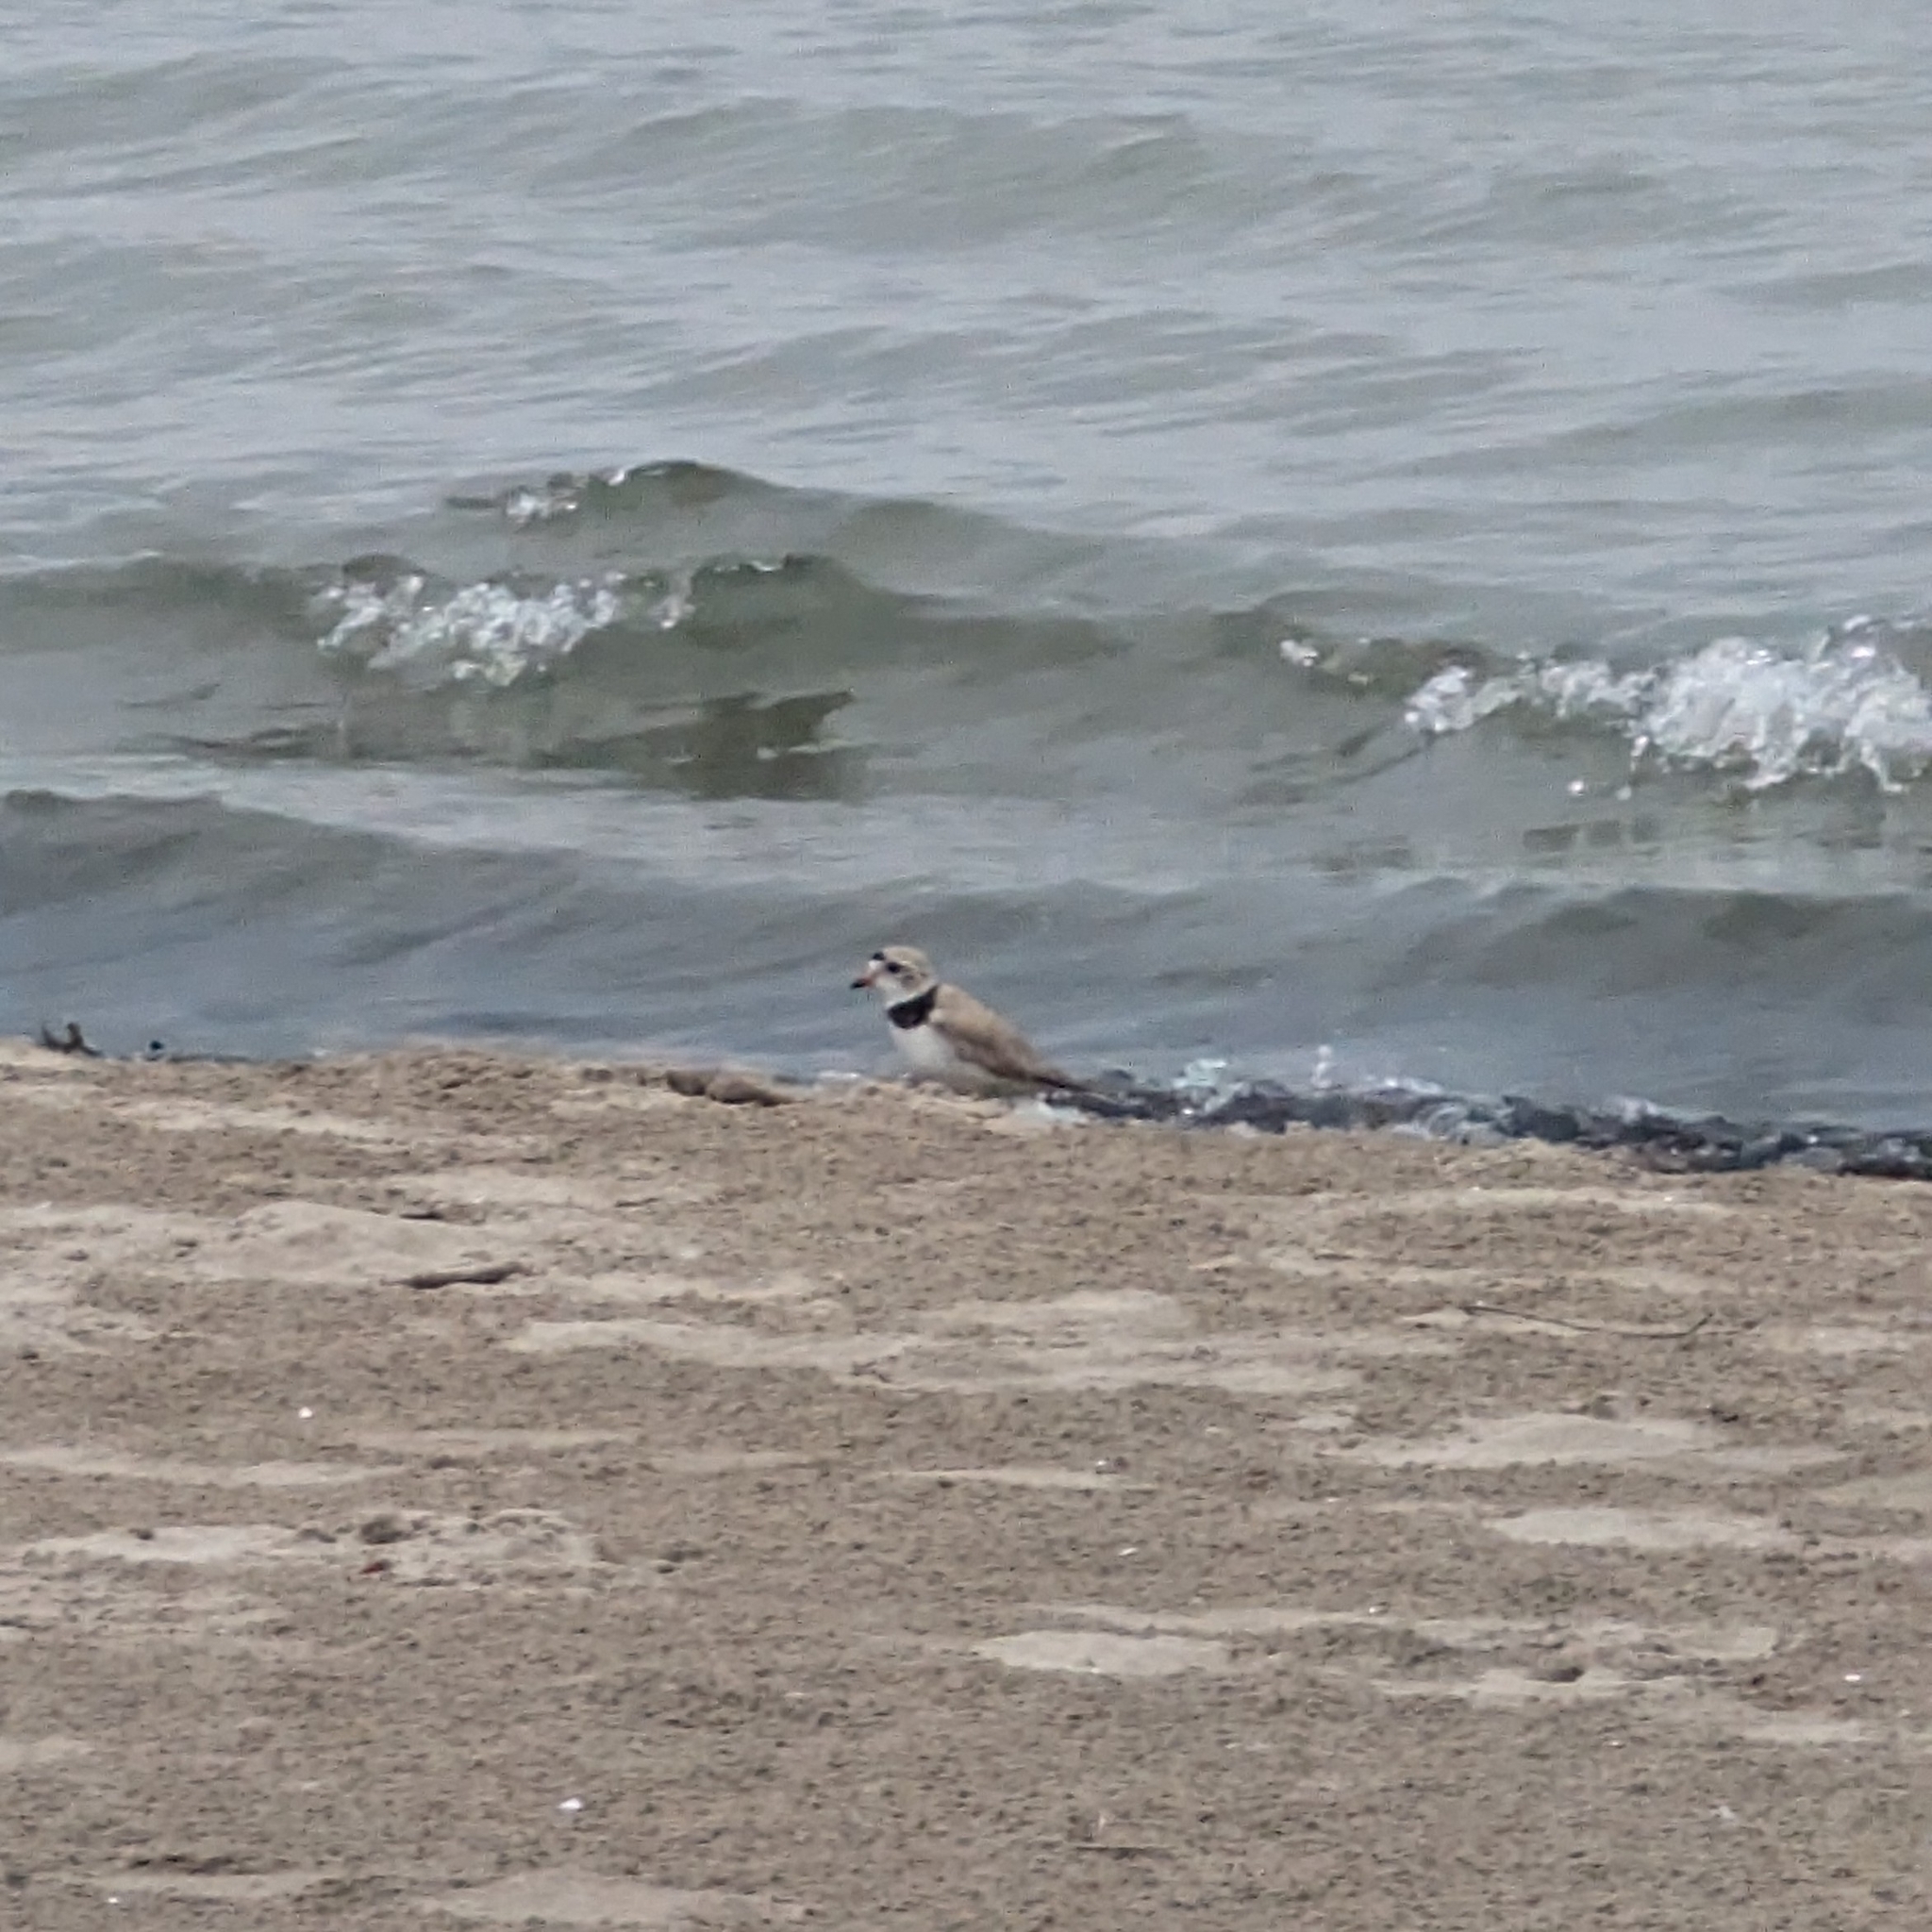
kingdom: Animalia
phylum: Chordata
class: Aves
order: Charadriiformes
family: Charadriidae
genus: Charadrius
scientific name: Charadrius melodus
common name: Piping plover
